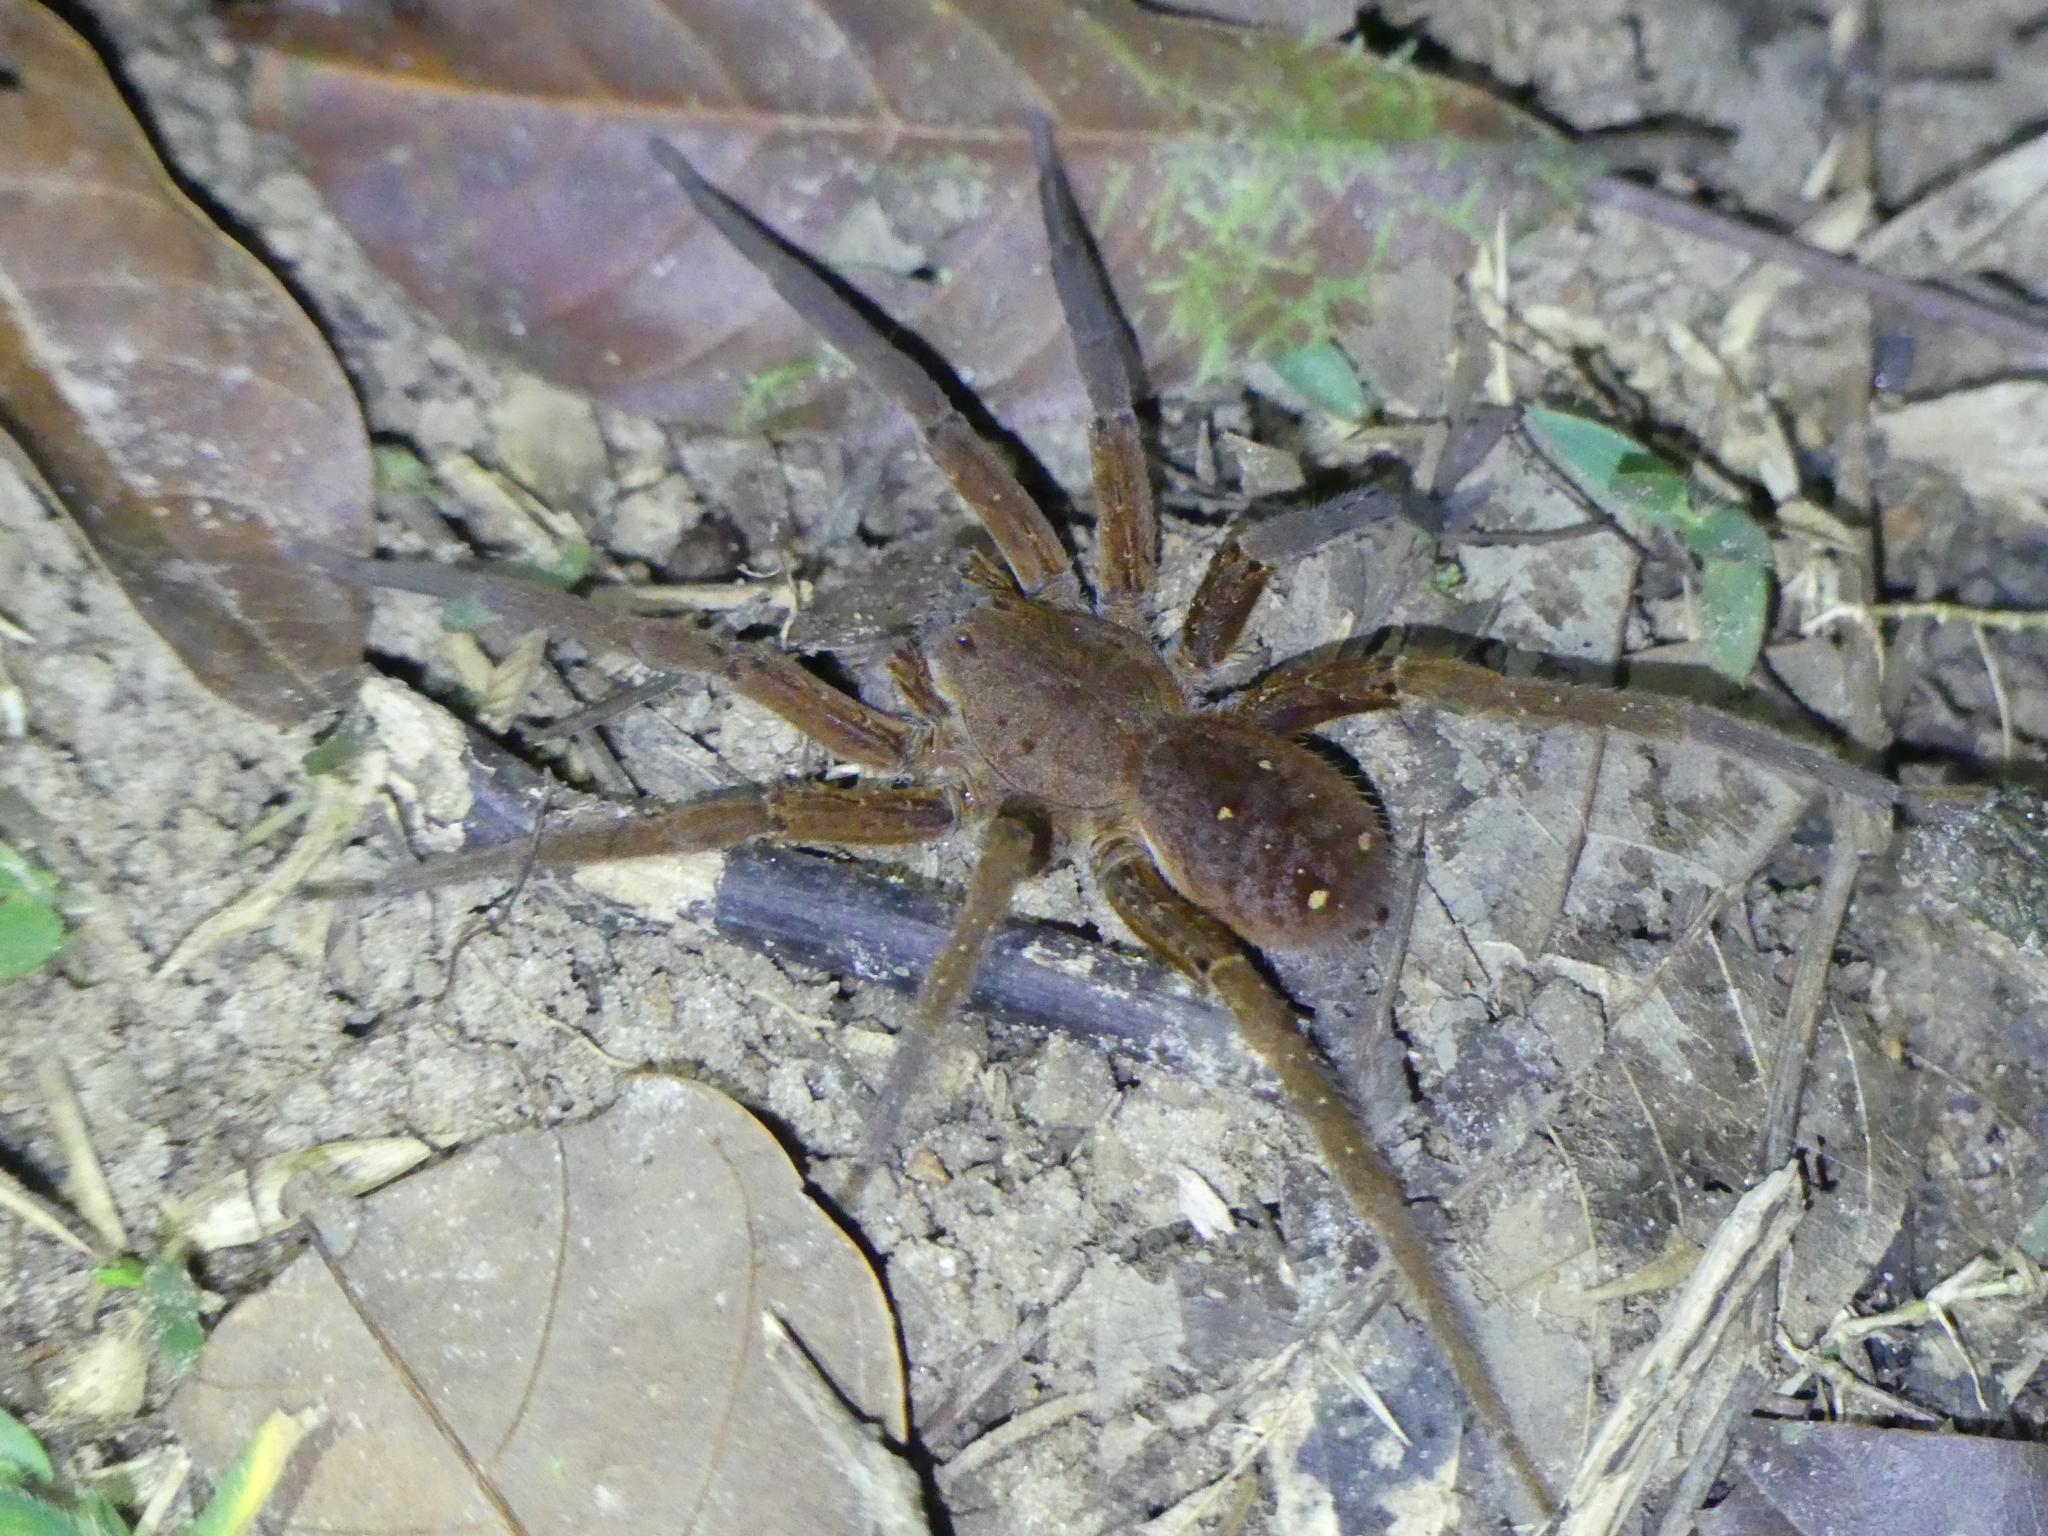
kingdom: Animalia
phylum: Arthropoda
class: Arachnida
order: Araneae
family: Ctenidae
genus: Ancylometes
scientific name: Ancylometes
